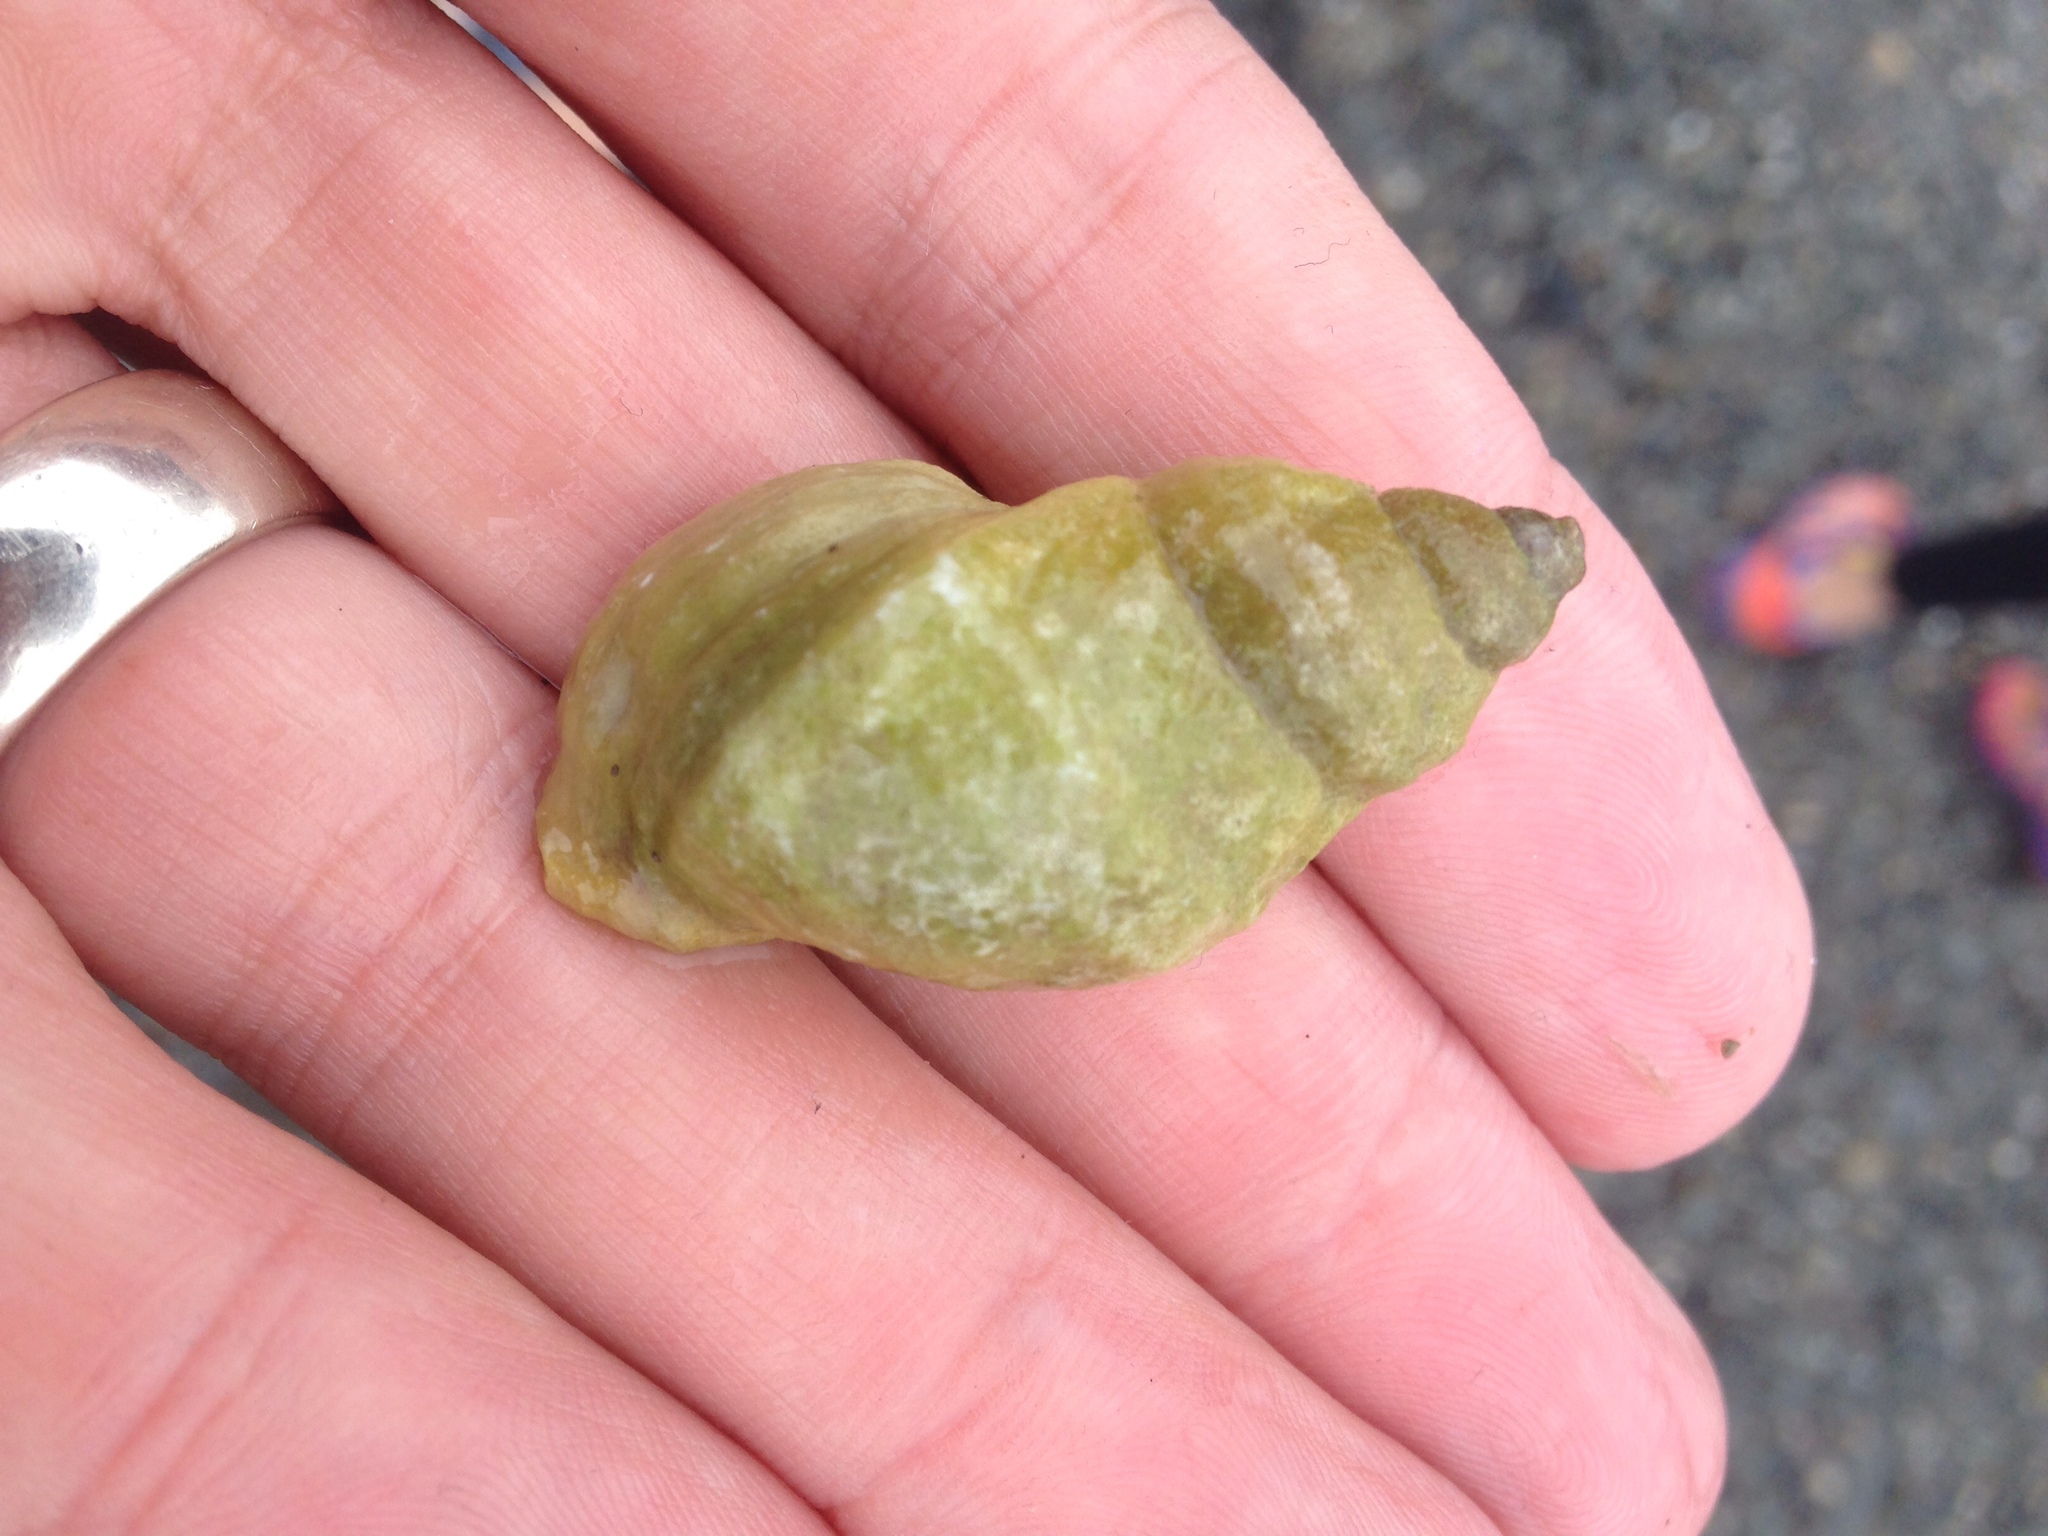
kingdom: Animalia
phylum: Mollusca
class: Gastropoda
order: Neogastropoda
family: Muricidae
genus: Nucella
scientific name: Nucella lapillus
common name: Dog whelk
